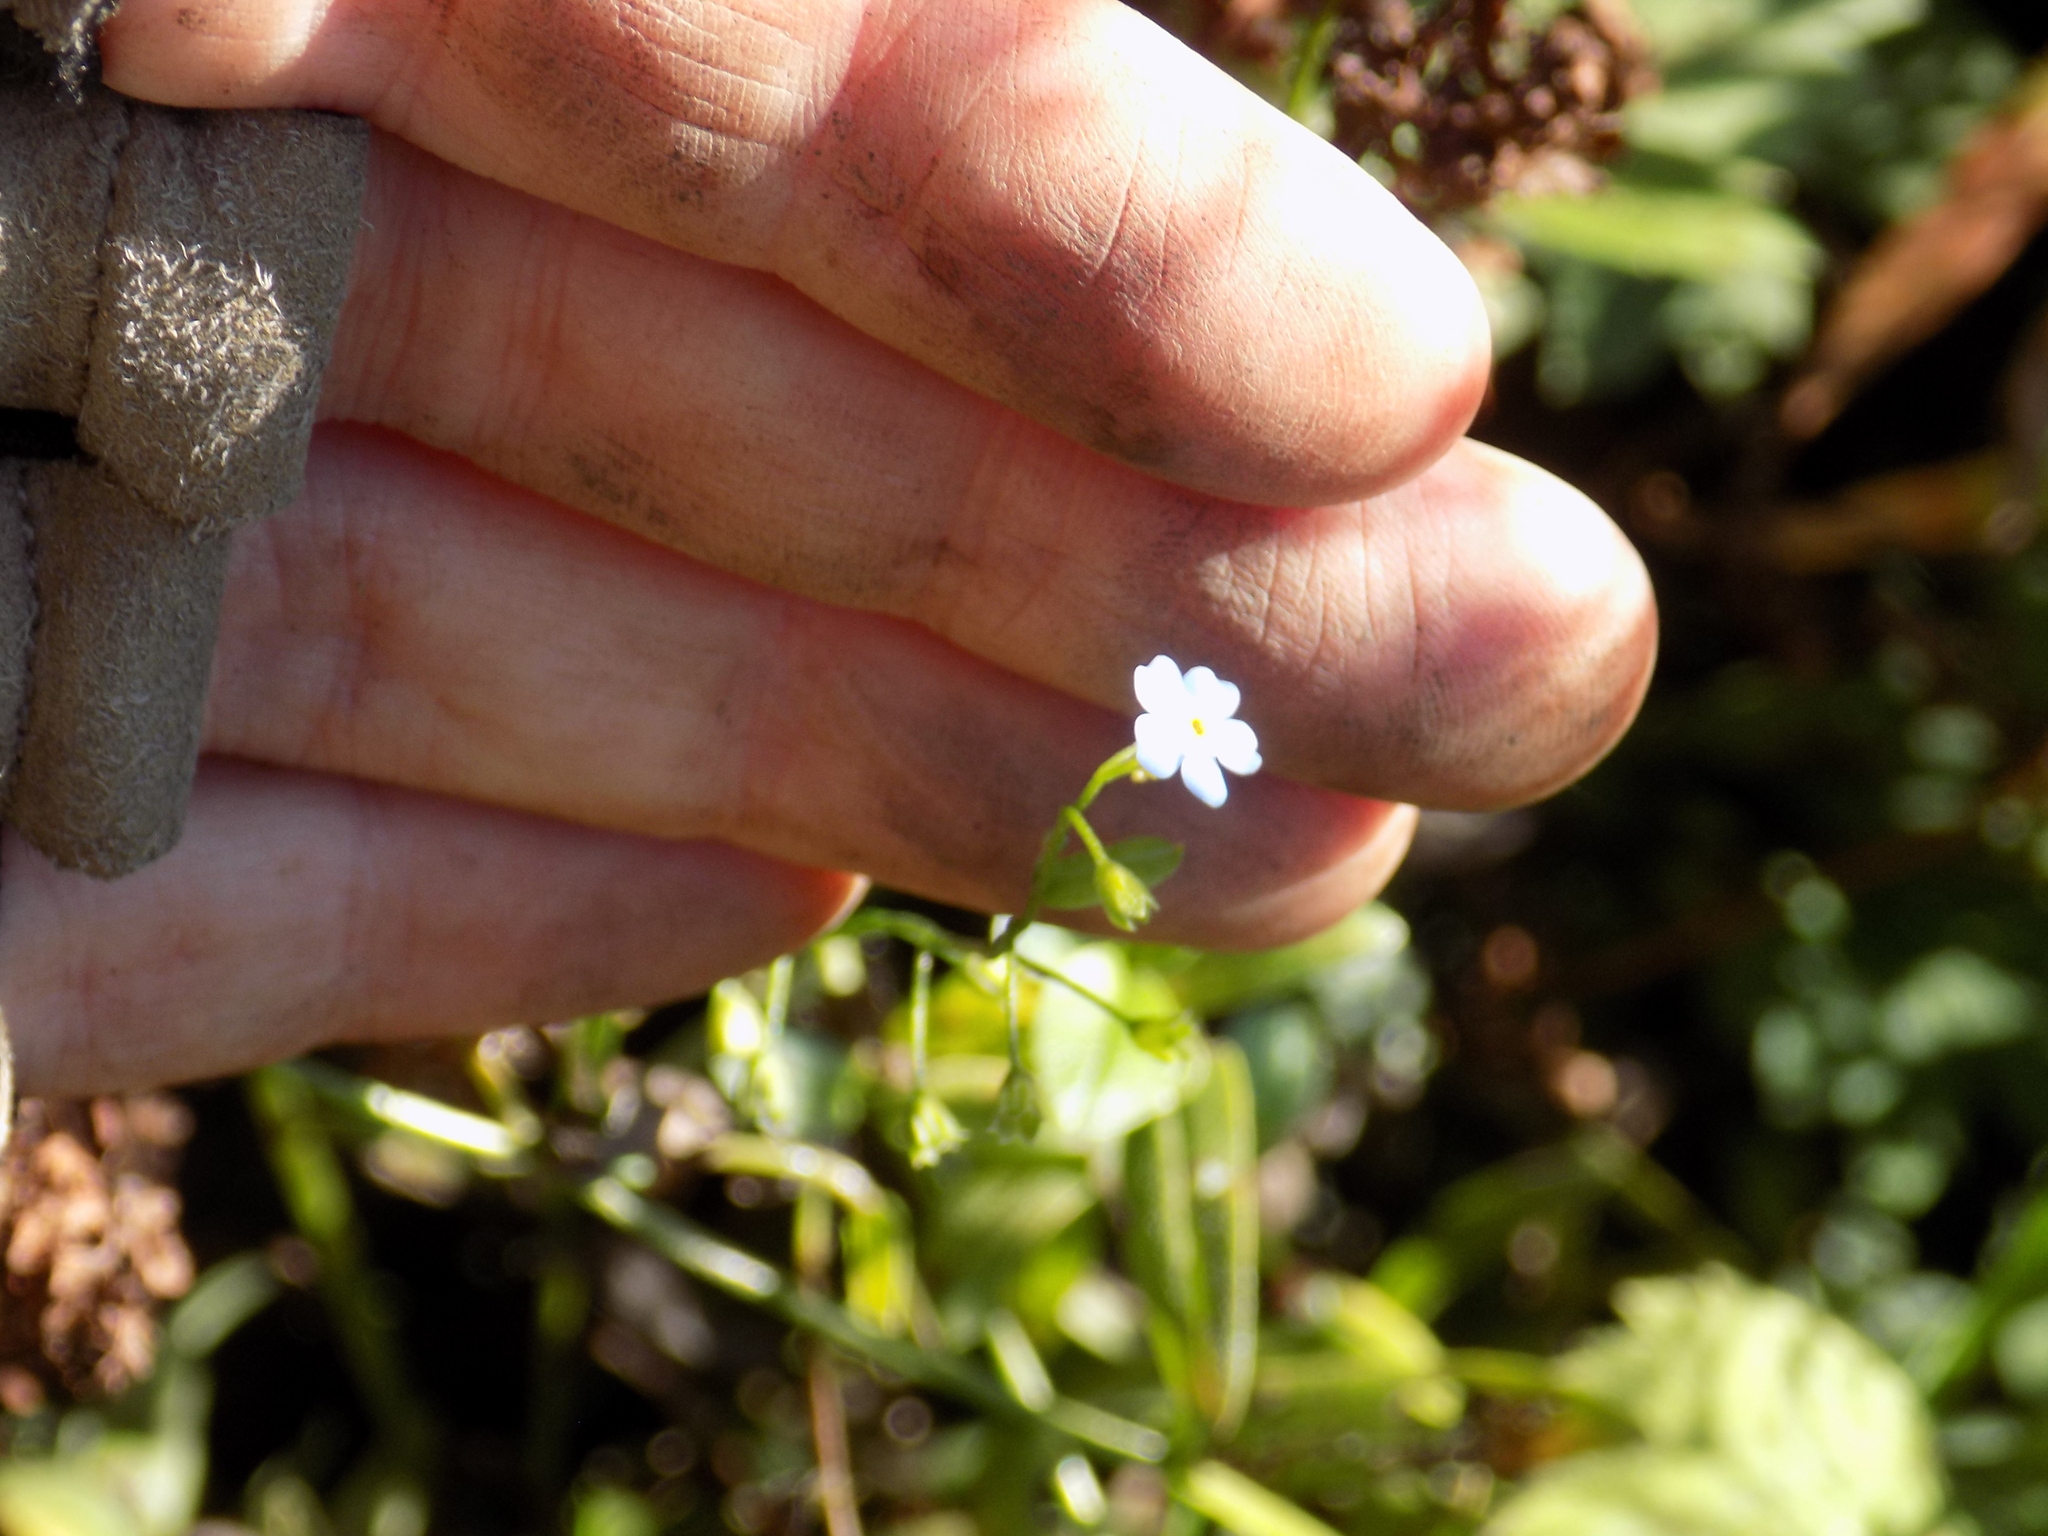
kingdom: Plantae
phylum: Tracheophyta
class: Magnoliopsida
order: Boraginales
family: Boraginaceae
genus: Myosotis
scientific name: Myosotis laxa
